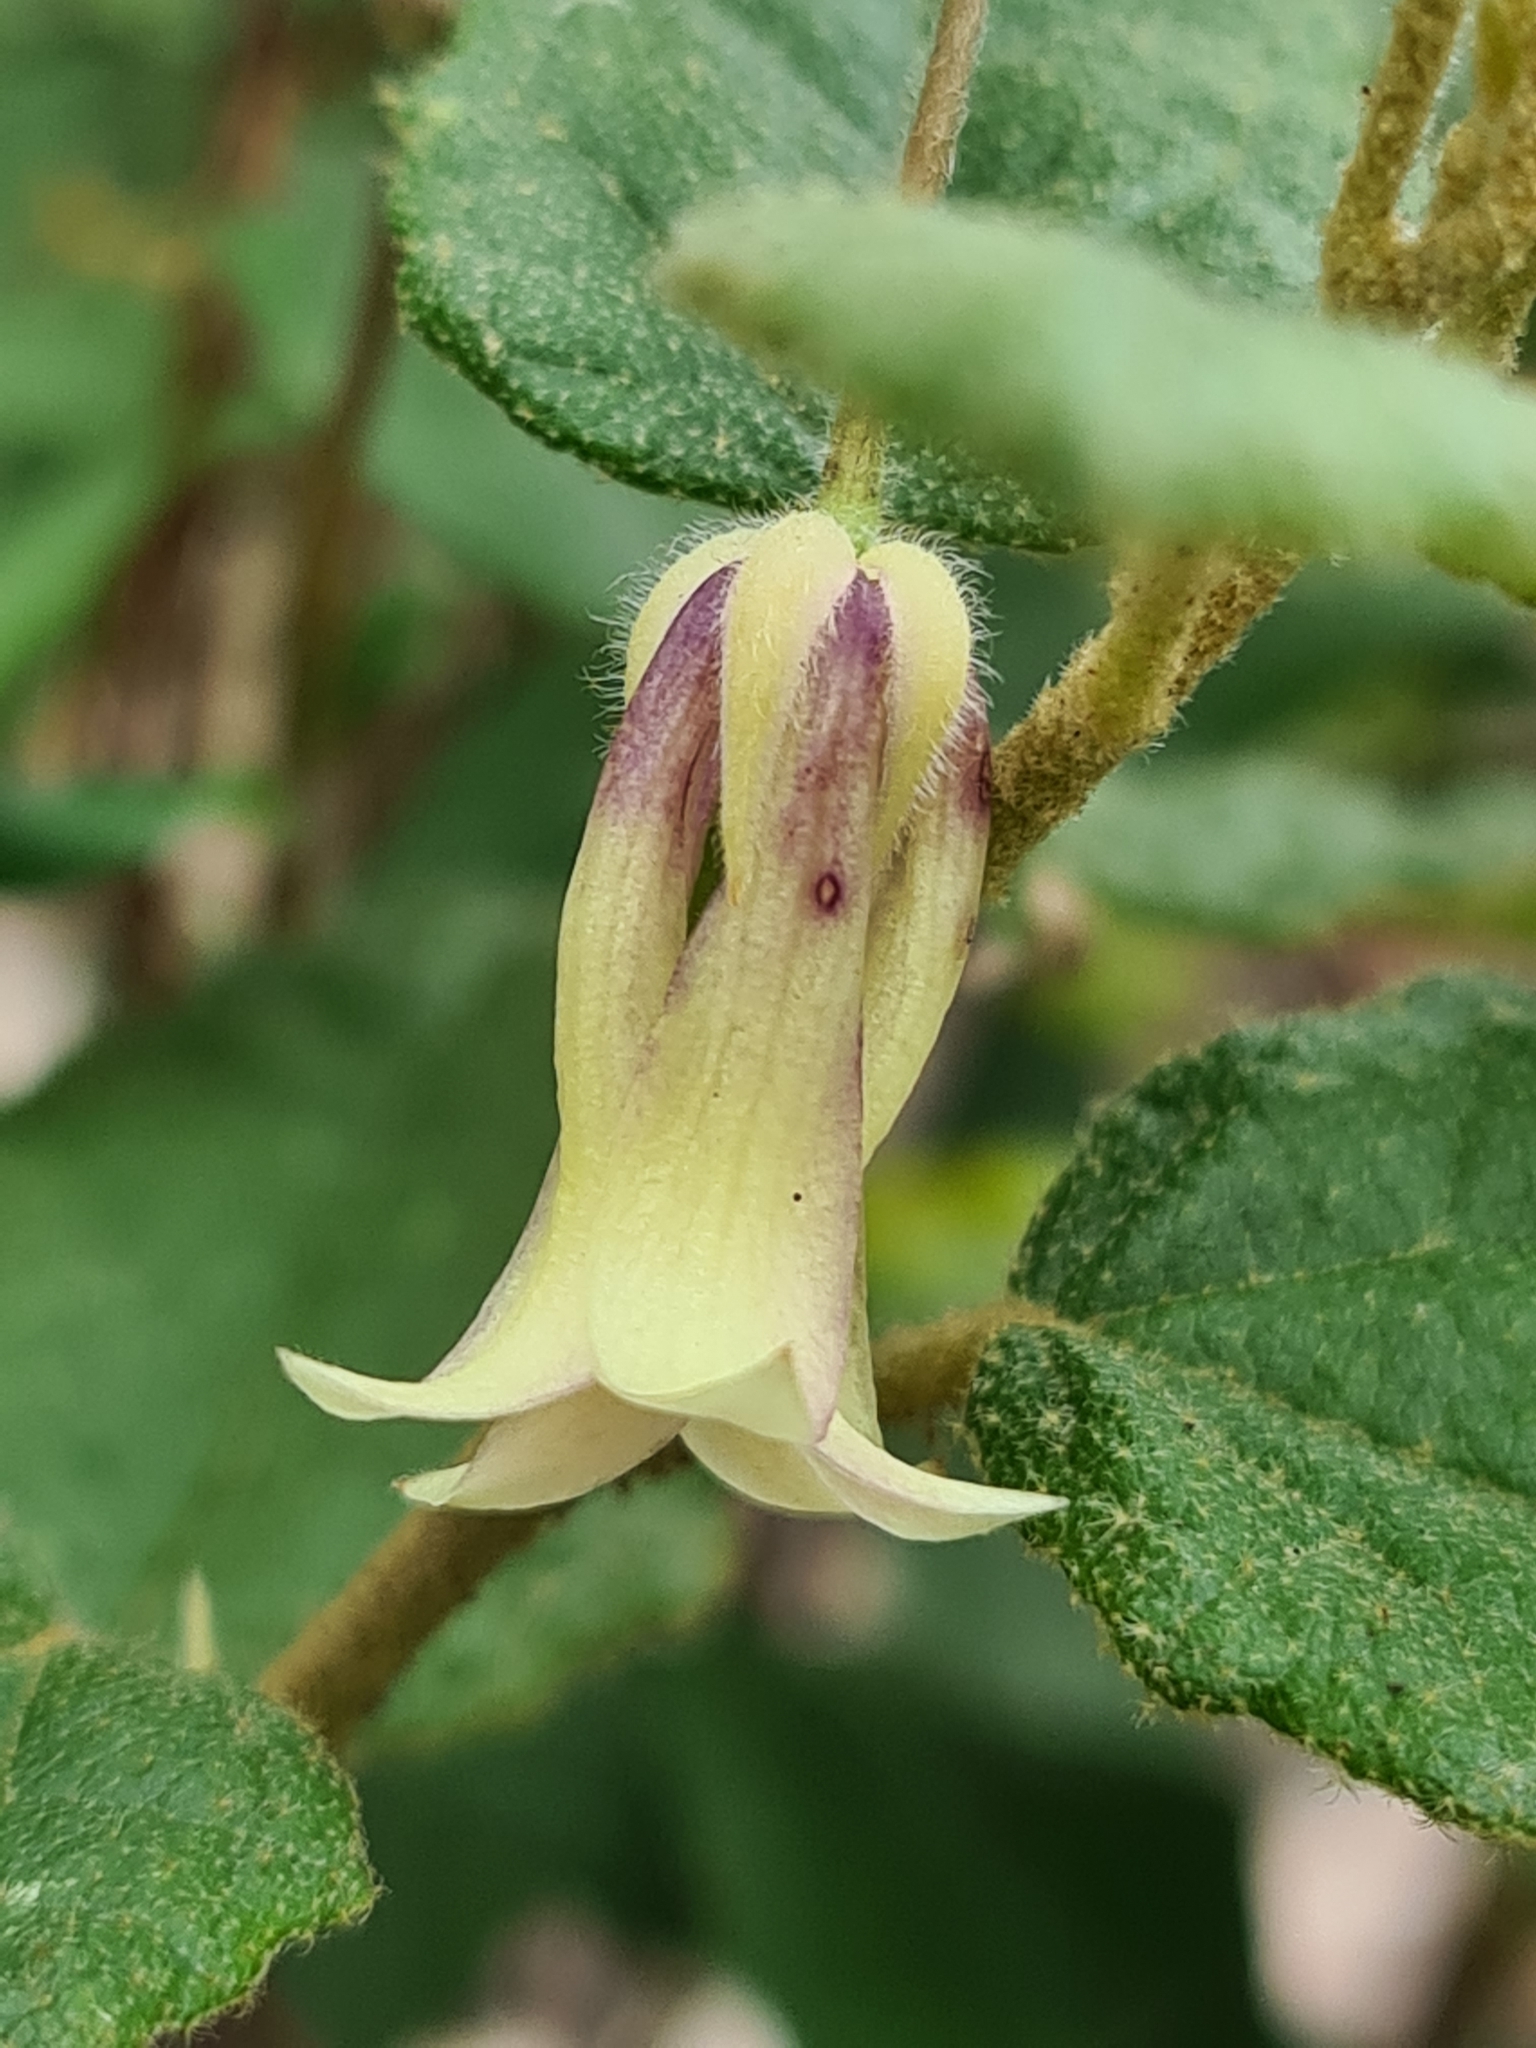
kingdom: Plantae
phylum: Tracheophyta
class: Magnoliopsida
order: Apiales
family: Pittosporaceae
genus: Billardiera
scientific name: Billardiera mutabilis
